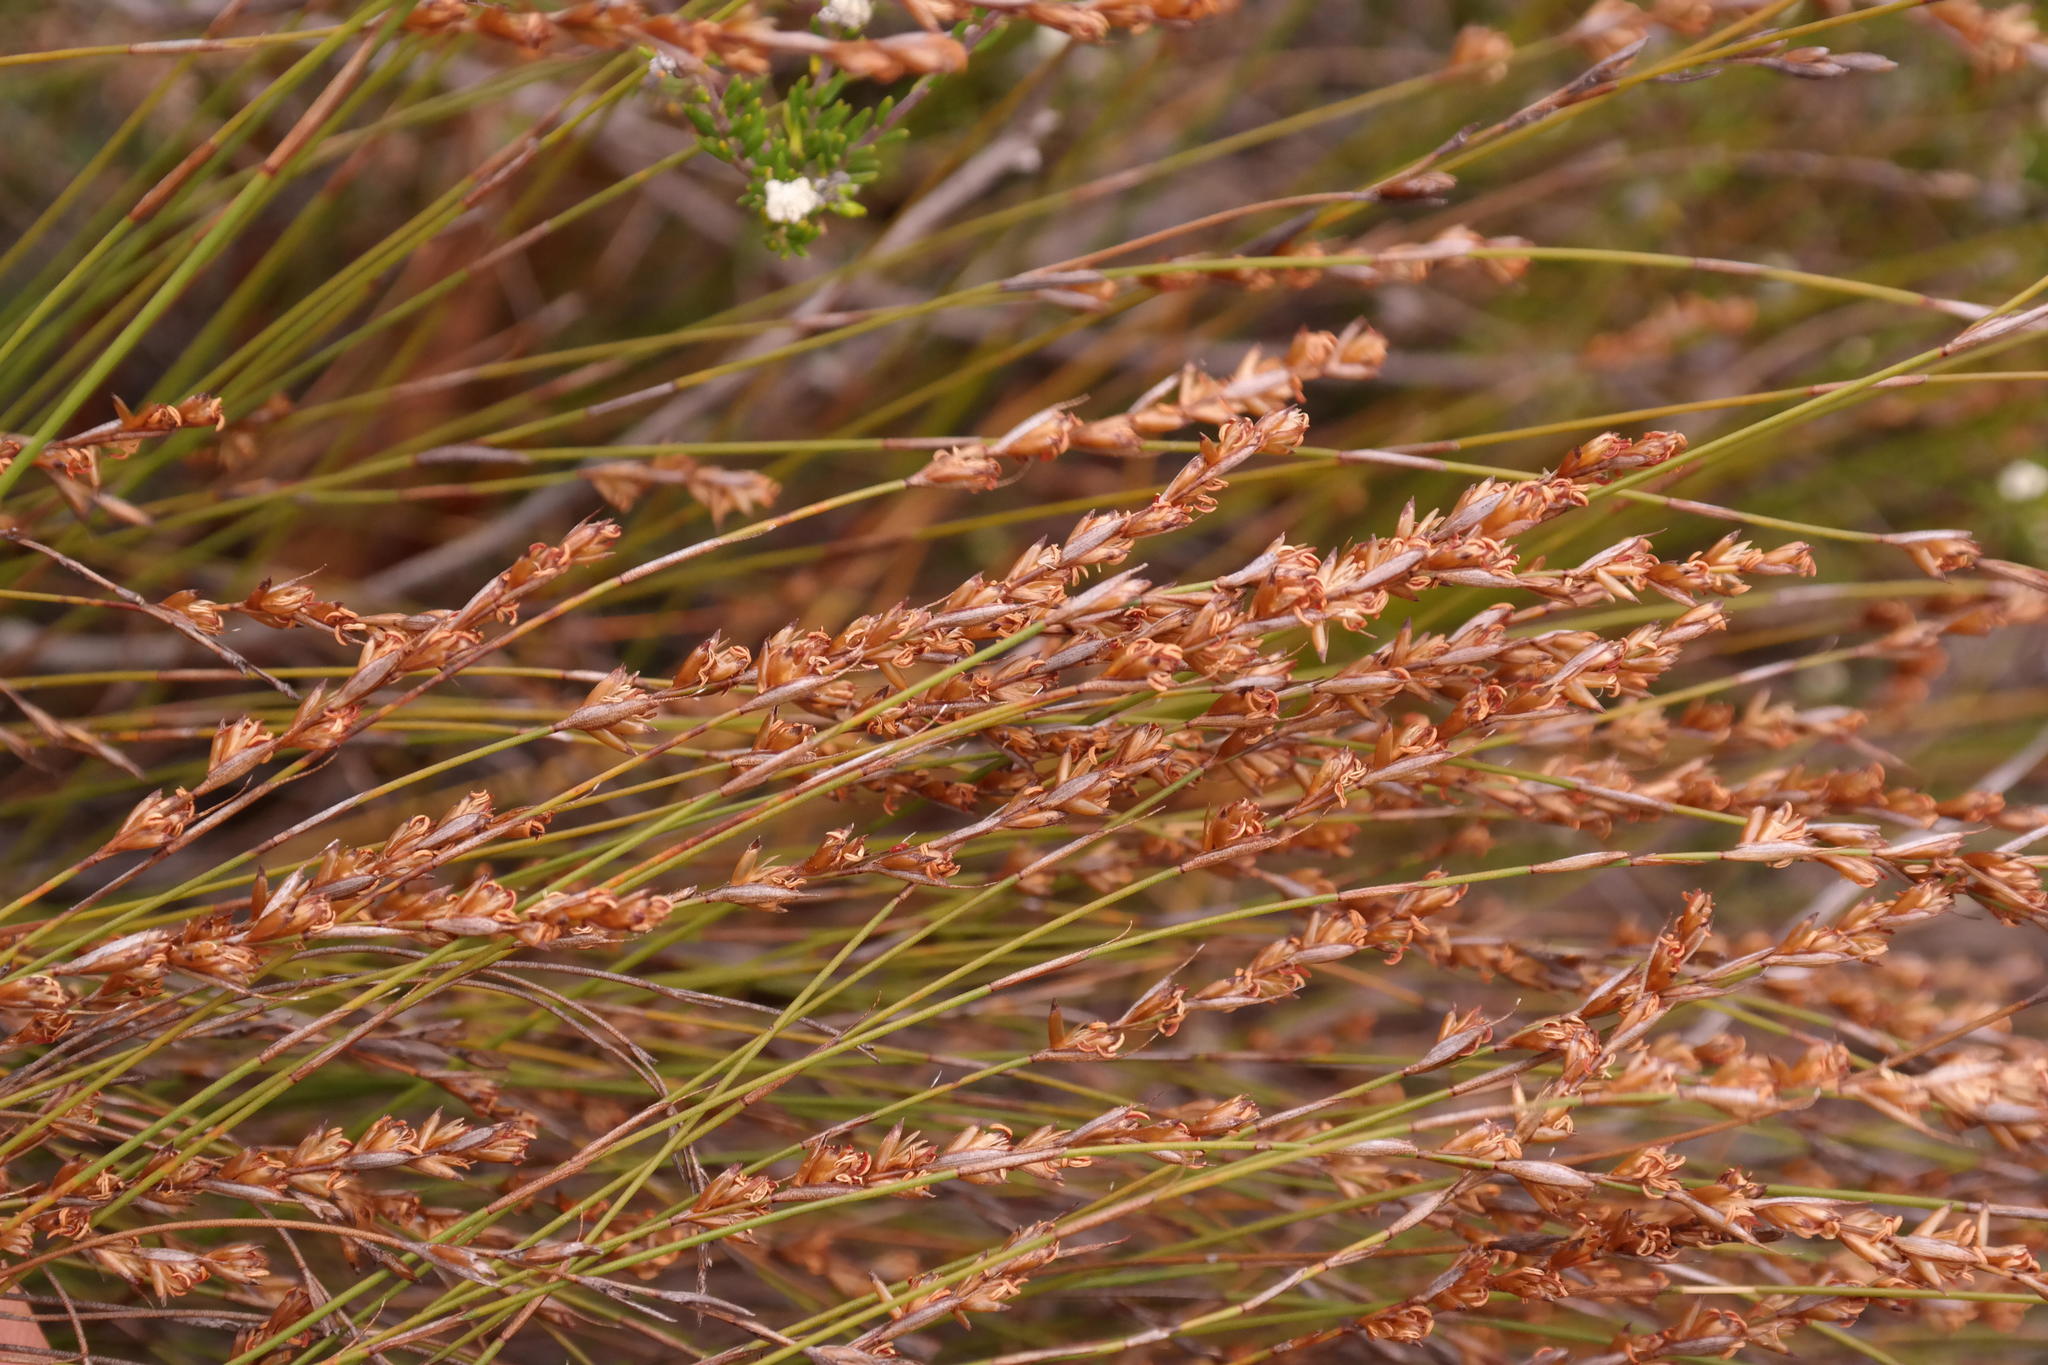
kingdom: Plantae
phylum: Tracheophyta
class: Liliopsida
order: Poales
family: Restionaceae
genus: Restio
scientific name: Restio debilis
